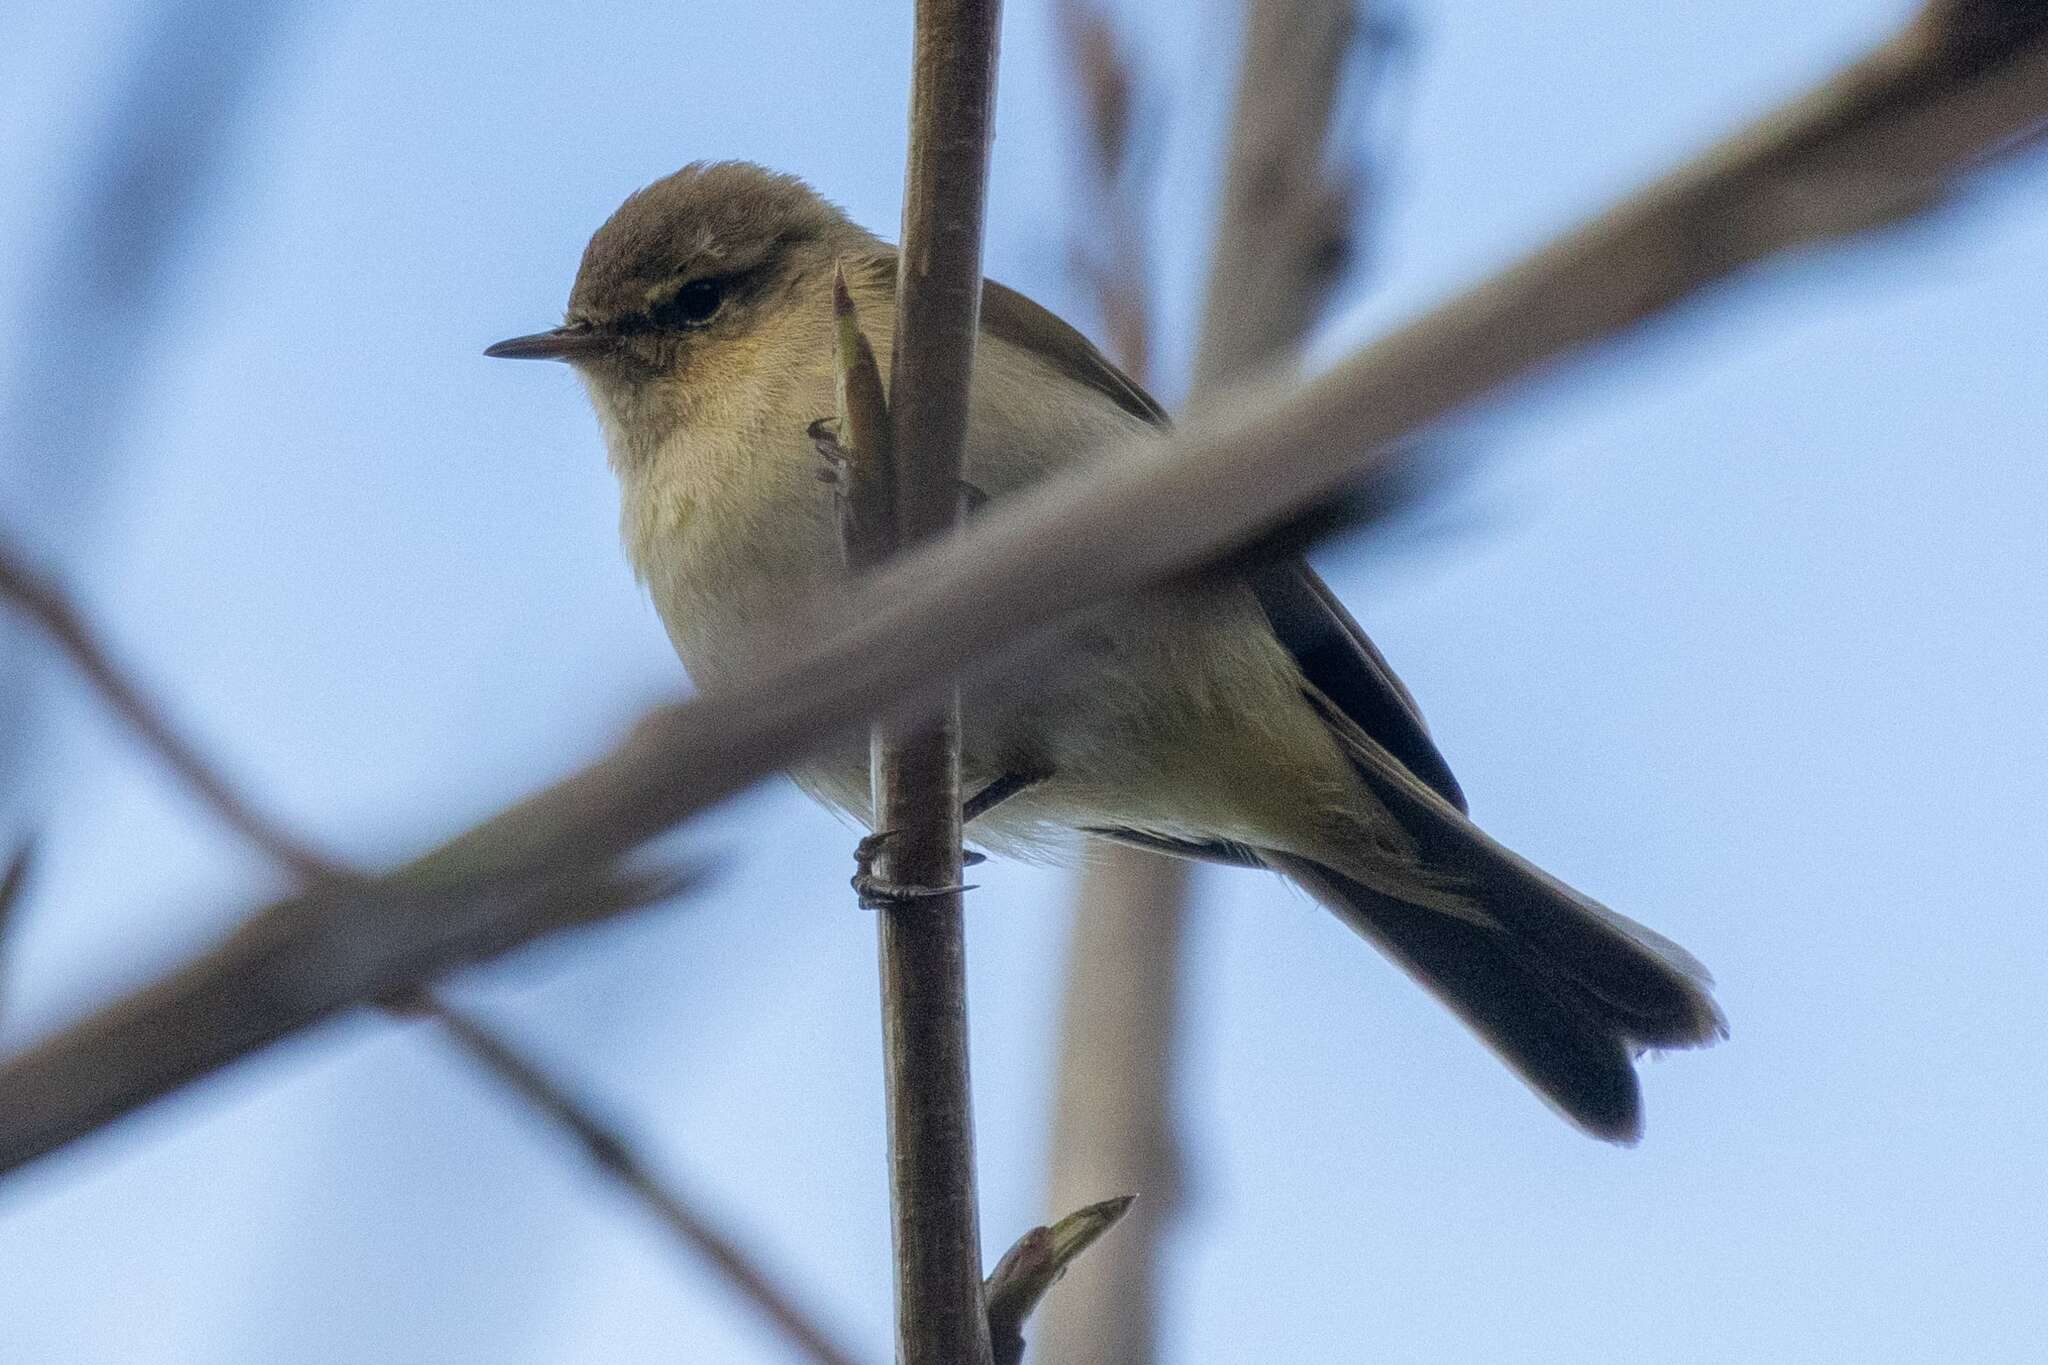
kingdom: Animalia
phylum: Chordata
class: Aves
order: Passeriformes
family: Phylloscopidae
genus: Phylloscopus
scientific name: Phylloscopus collybita
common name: Common chiffchaff
